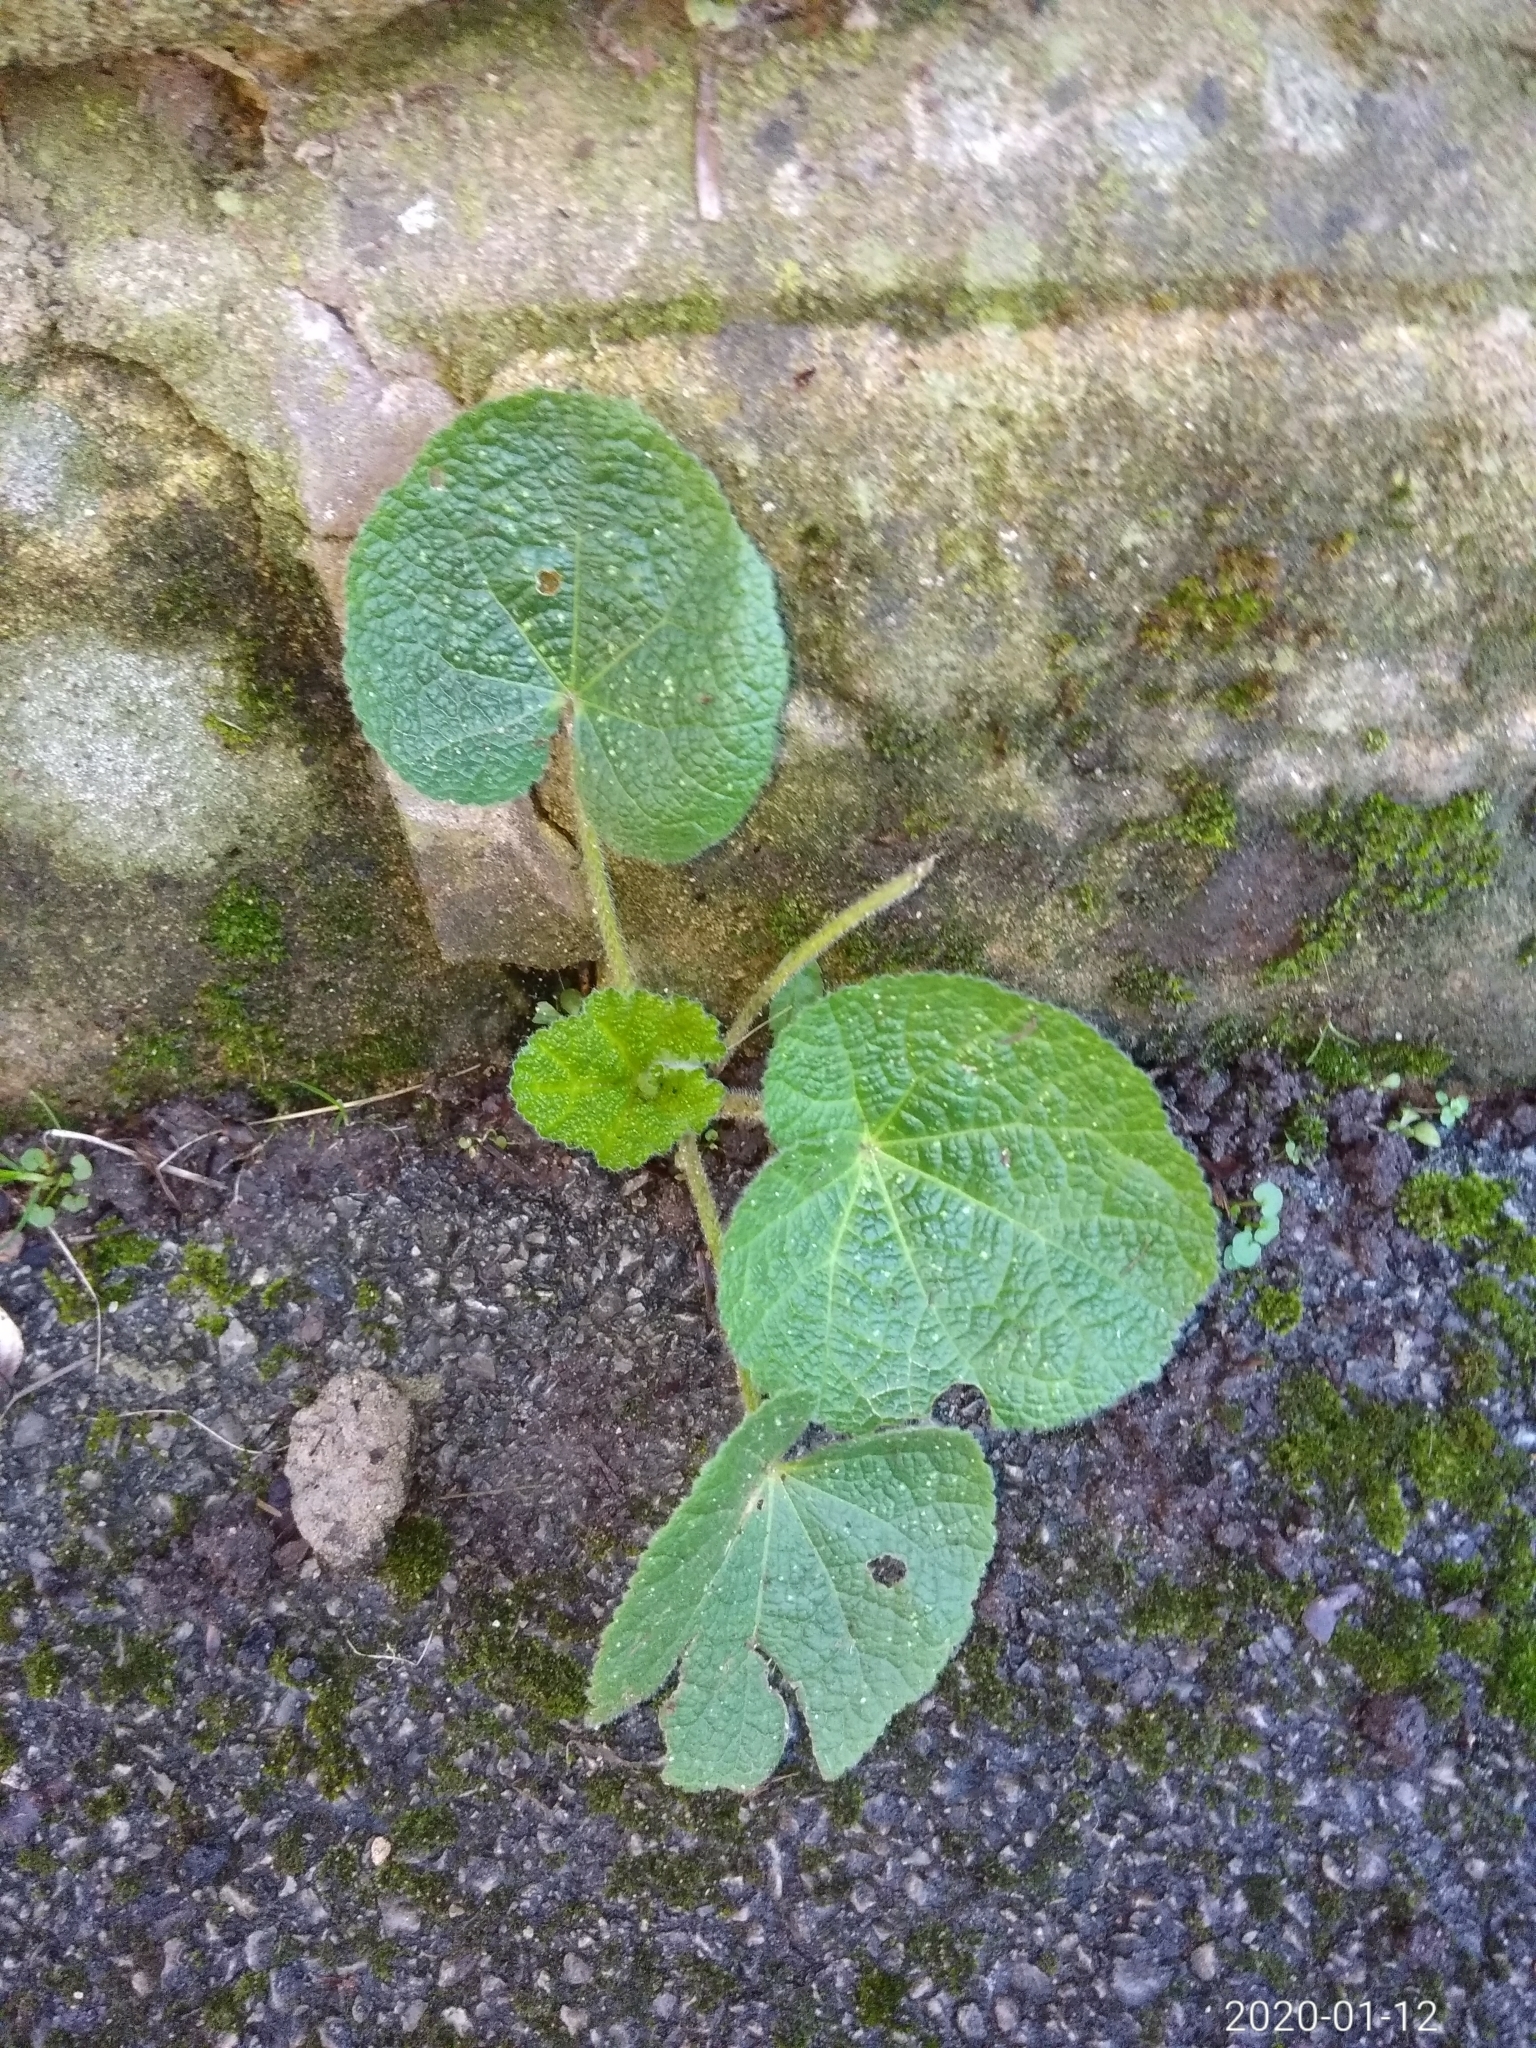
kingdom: Plantae
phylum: Tracheophyta
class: Magnoliopsida
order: Malvales
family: Malvaceae
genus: Alcea
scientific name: Alcea rosea
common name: Hollyhock
